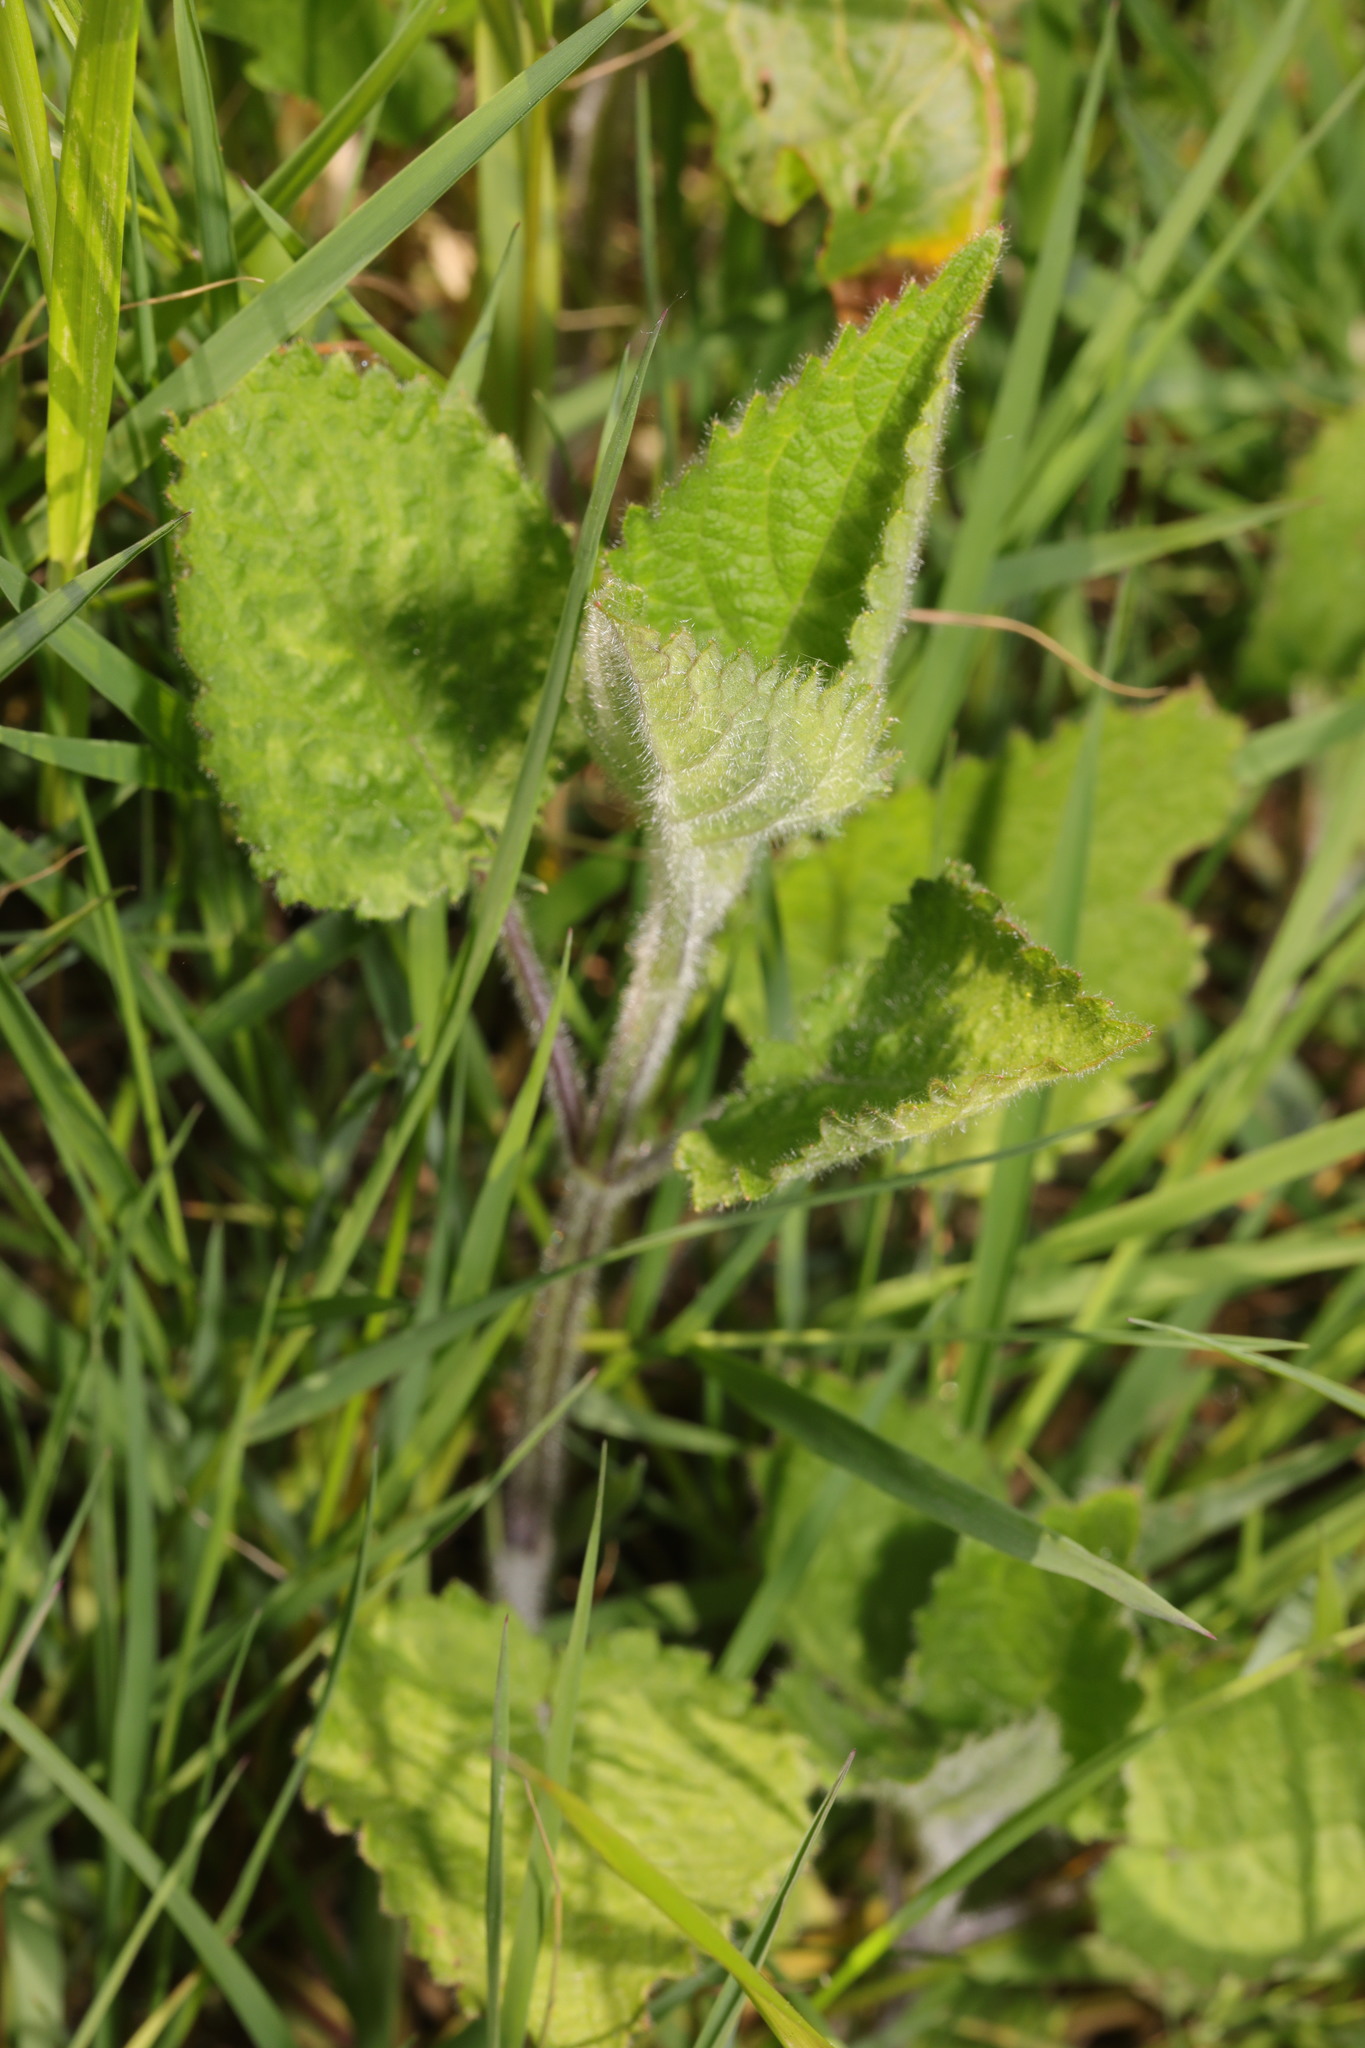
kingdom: Plantae
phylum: Tracheophyta
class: Magnoliopsida
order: Lamiales
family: Lamiaceae
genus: Stachys
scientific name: Stachys sylvatica
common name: Hedge woundwort
